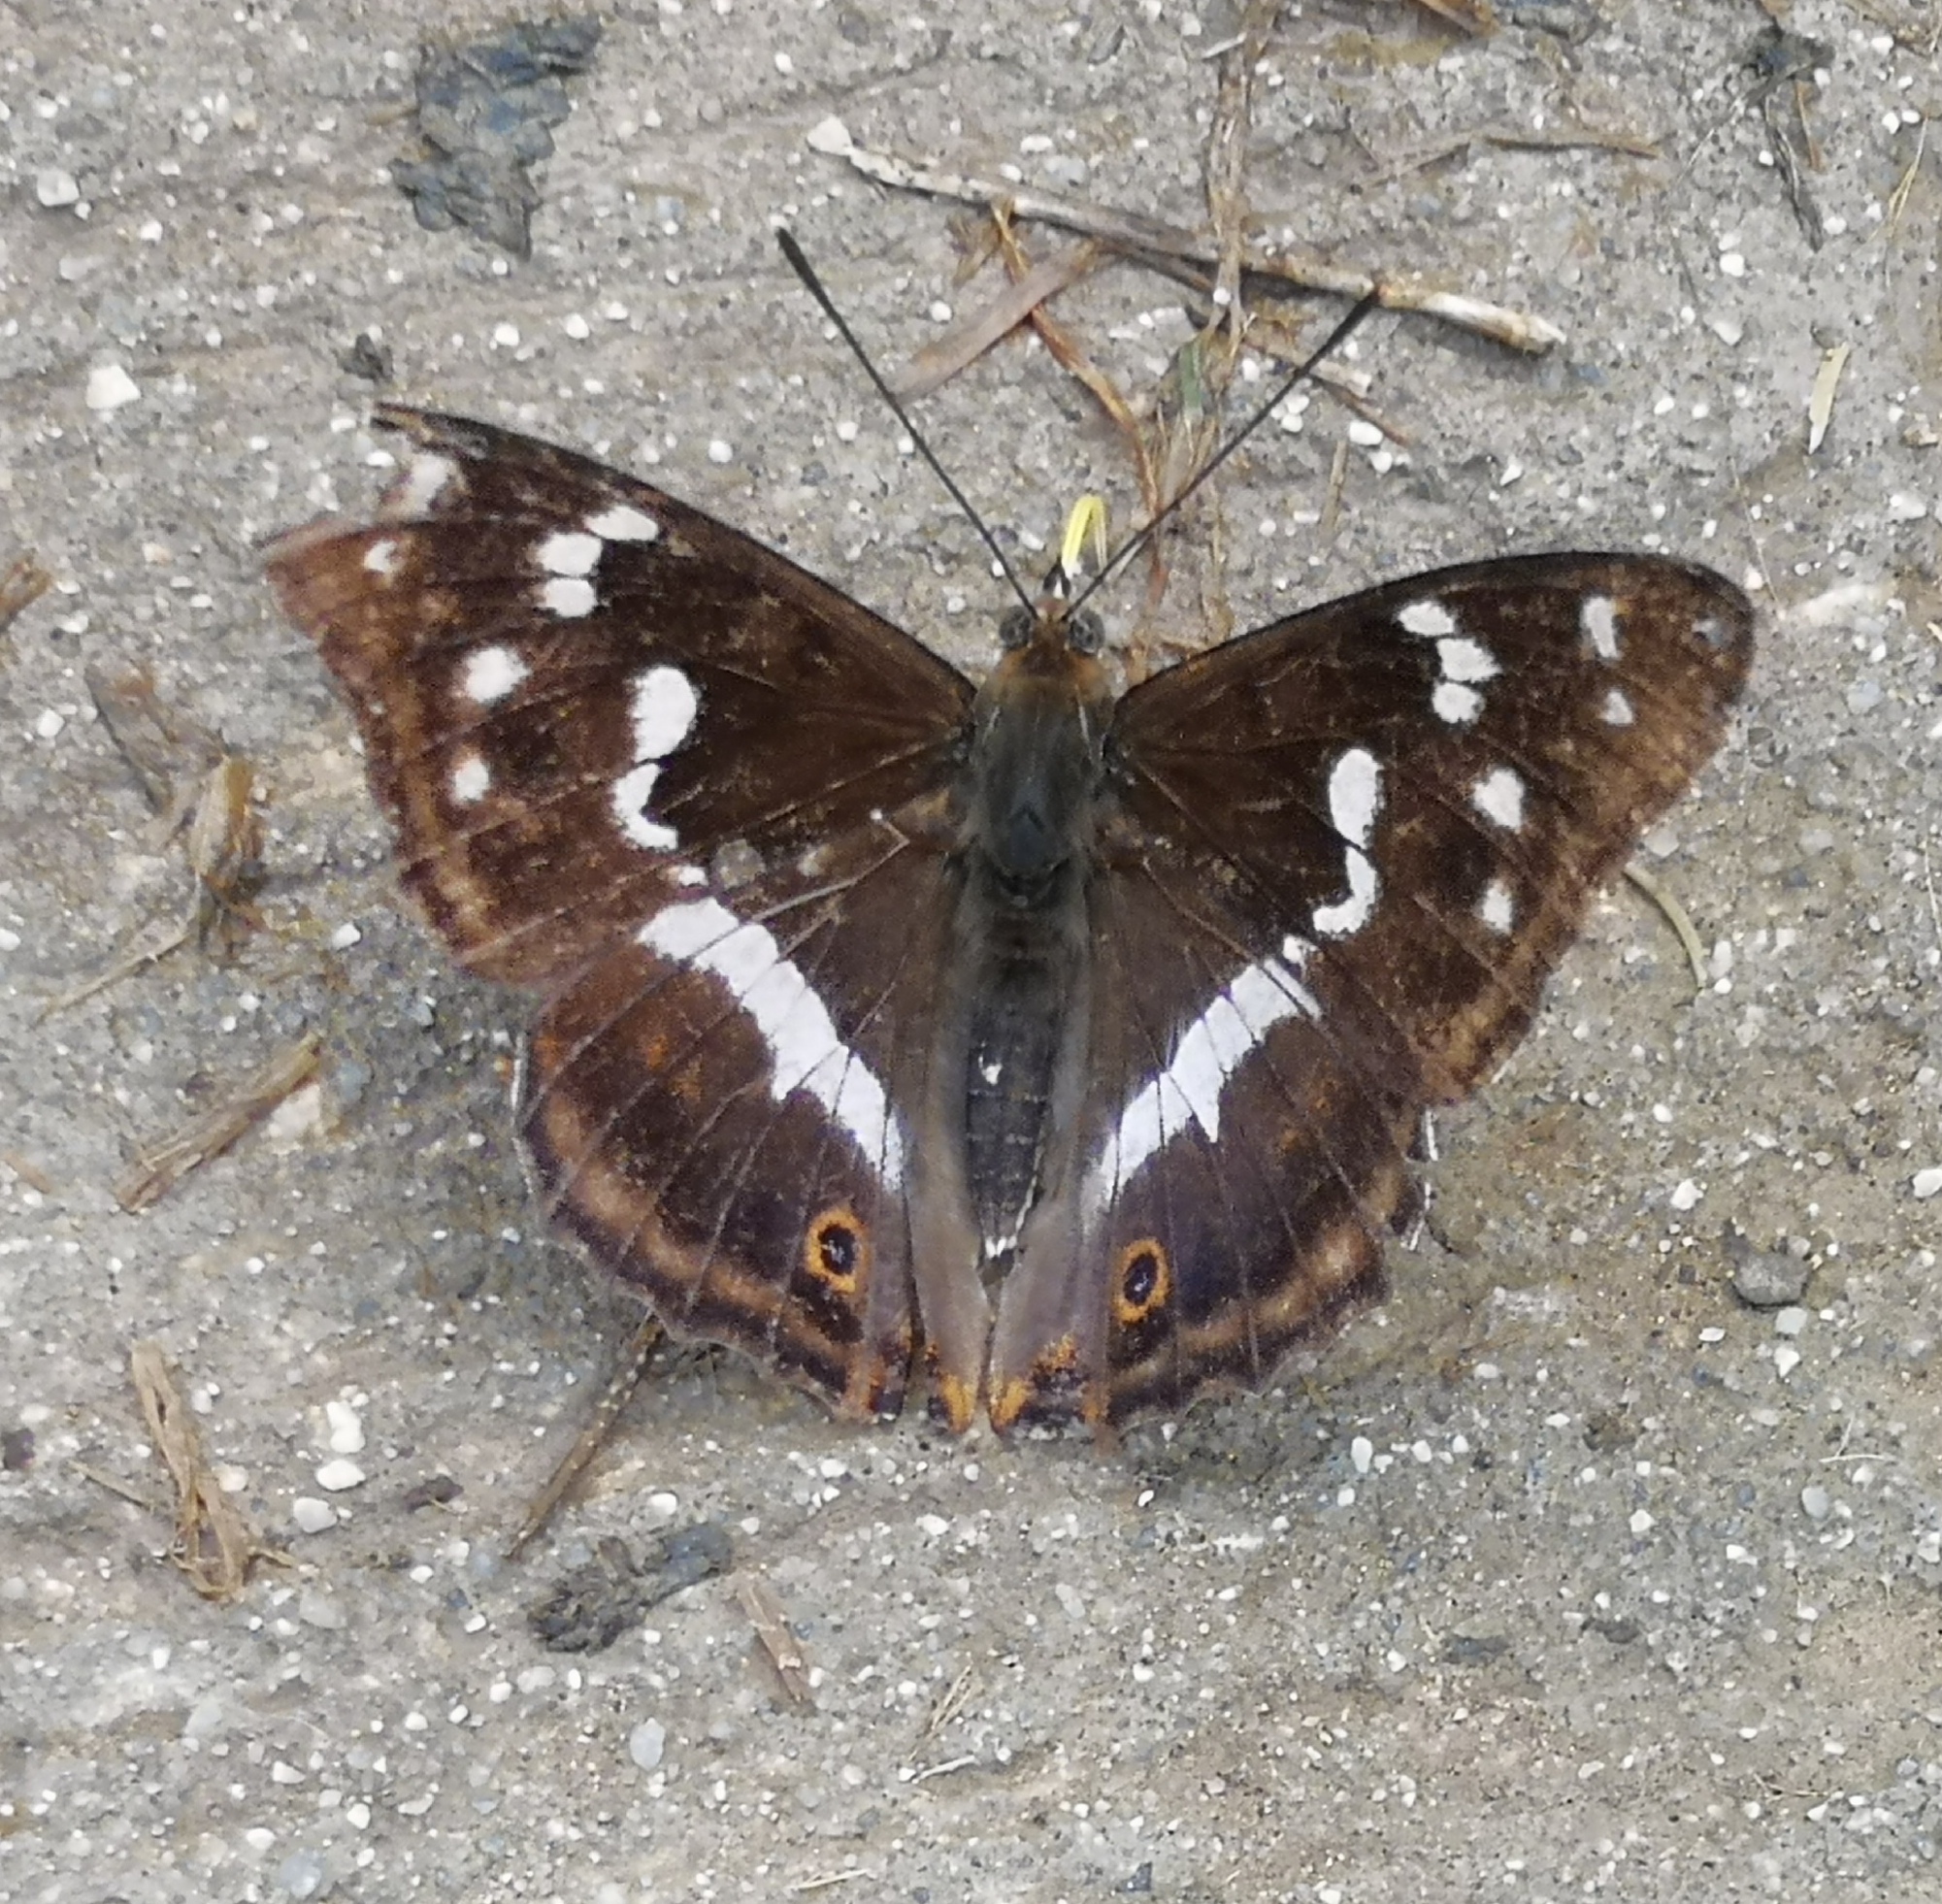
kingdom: Animalia
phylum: Arthropoda
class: Insecta
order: Lepidoptera
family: Nymphalidae
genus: Apatura
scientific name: Apatura iris
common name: Purple emperor
